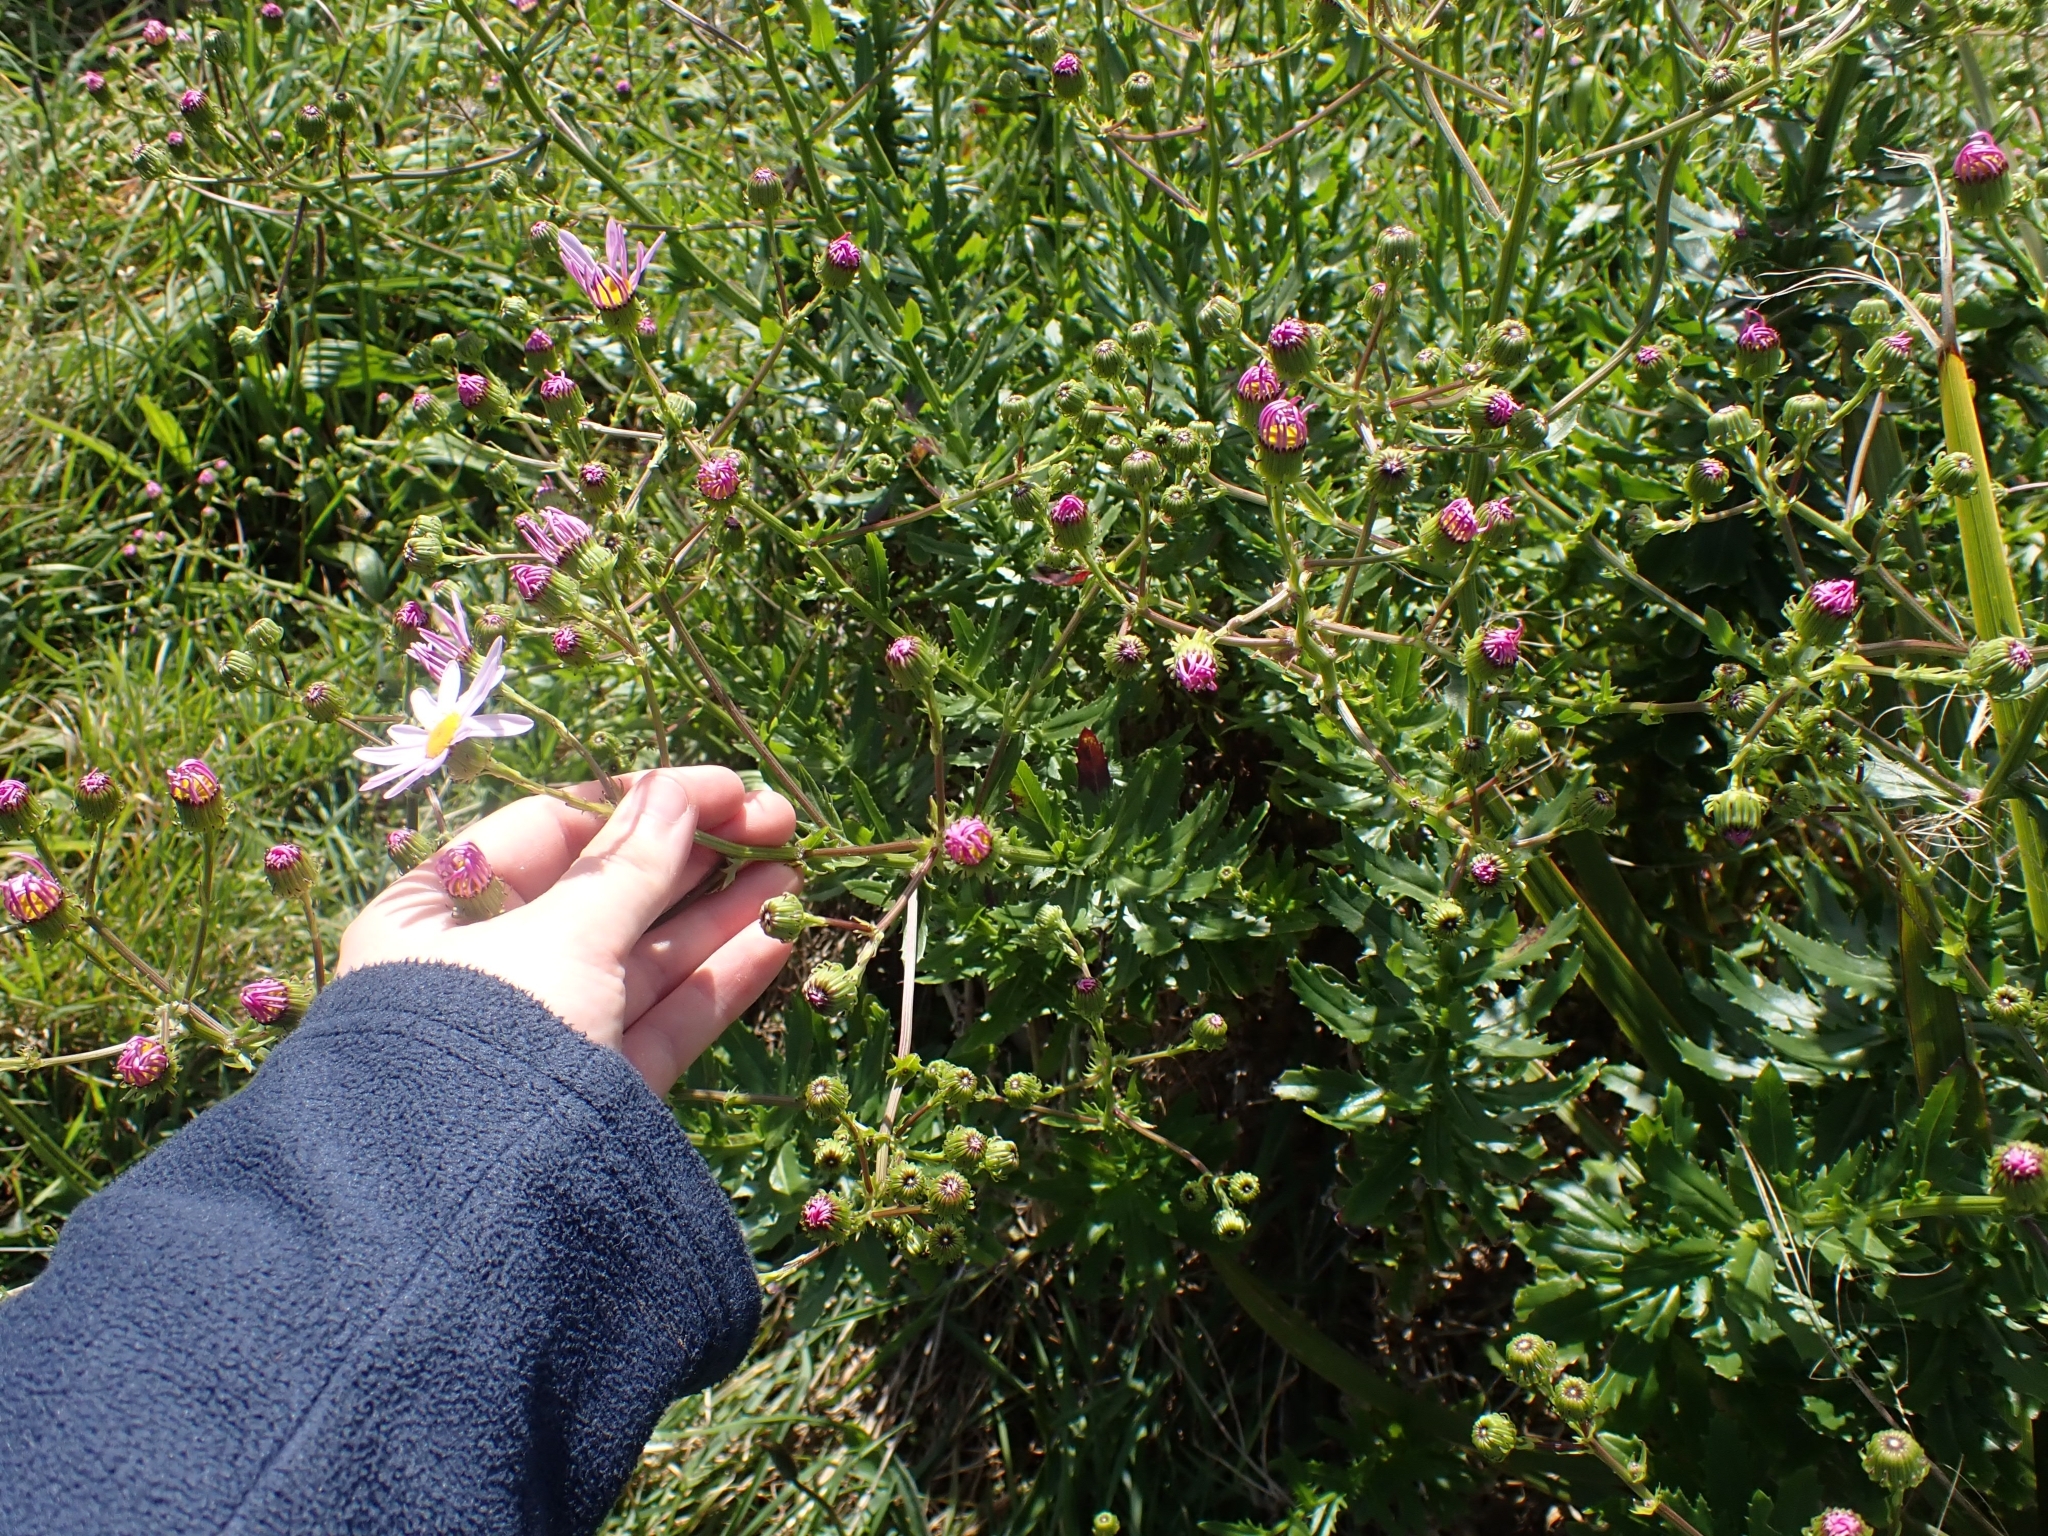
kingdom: Plantae
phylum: Tracheophyta
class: Magnoliopsida
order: Asterales
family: Asteraceae
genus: Senecio
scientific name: Senecio glastifolius
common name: Woad-leaved ragwort
